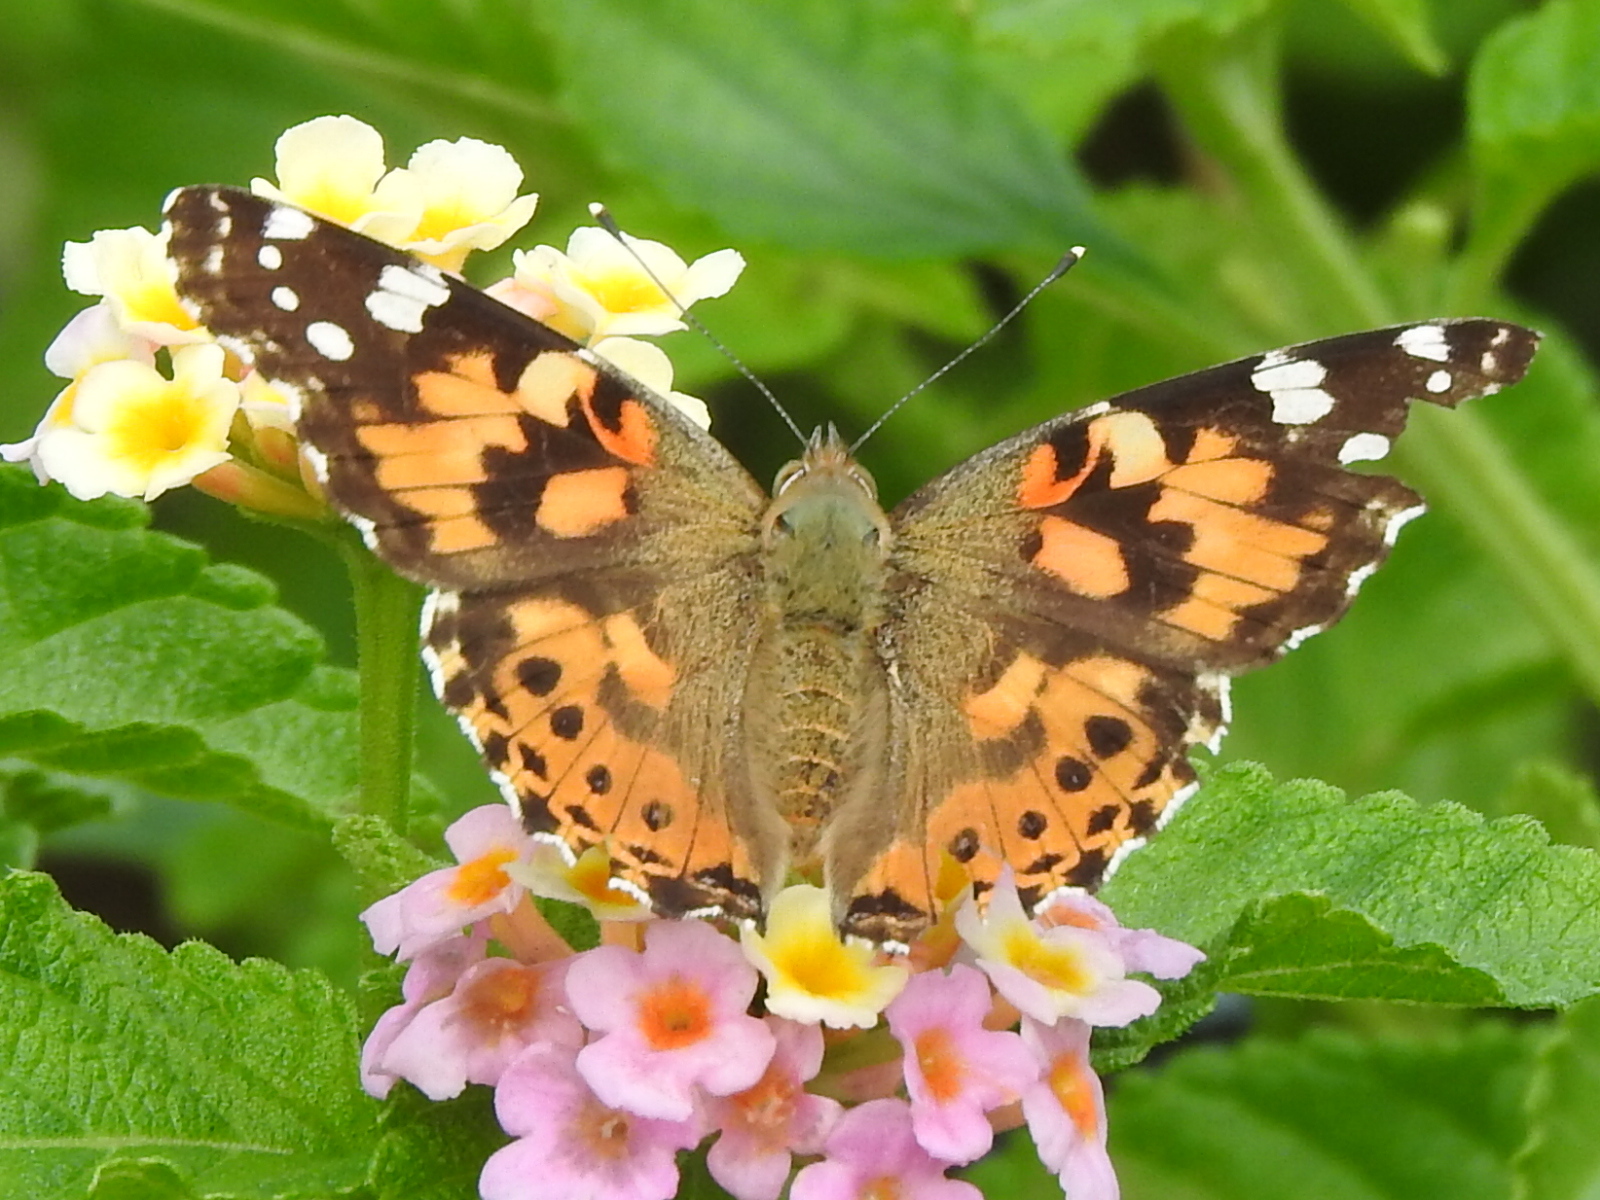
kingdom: Animalia
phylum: Arthropoda
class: Insecta
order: Lepidoptera
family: Nymphalidae
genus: Vanessa
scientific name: Vanessa cardui
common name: Painted lady
